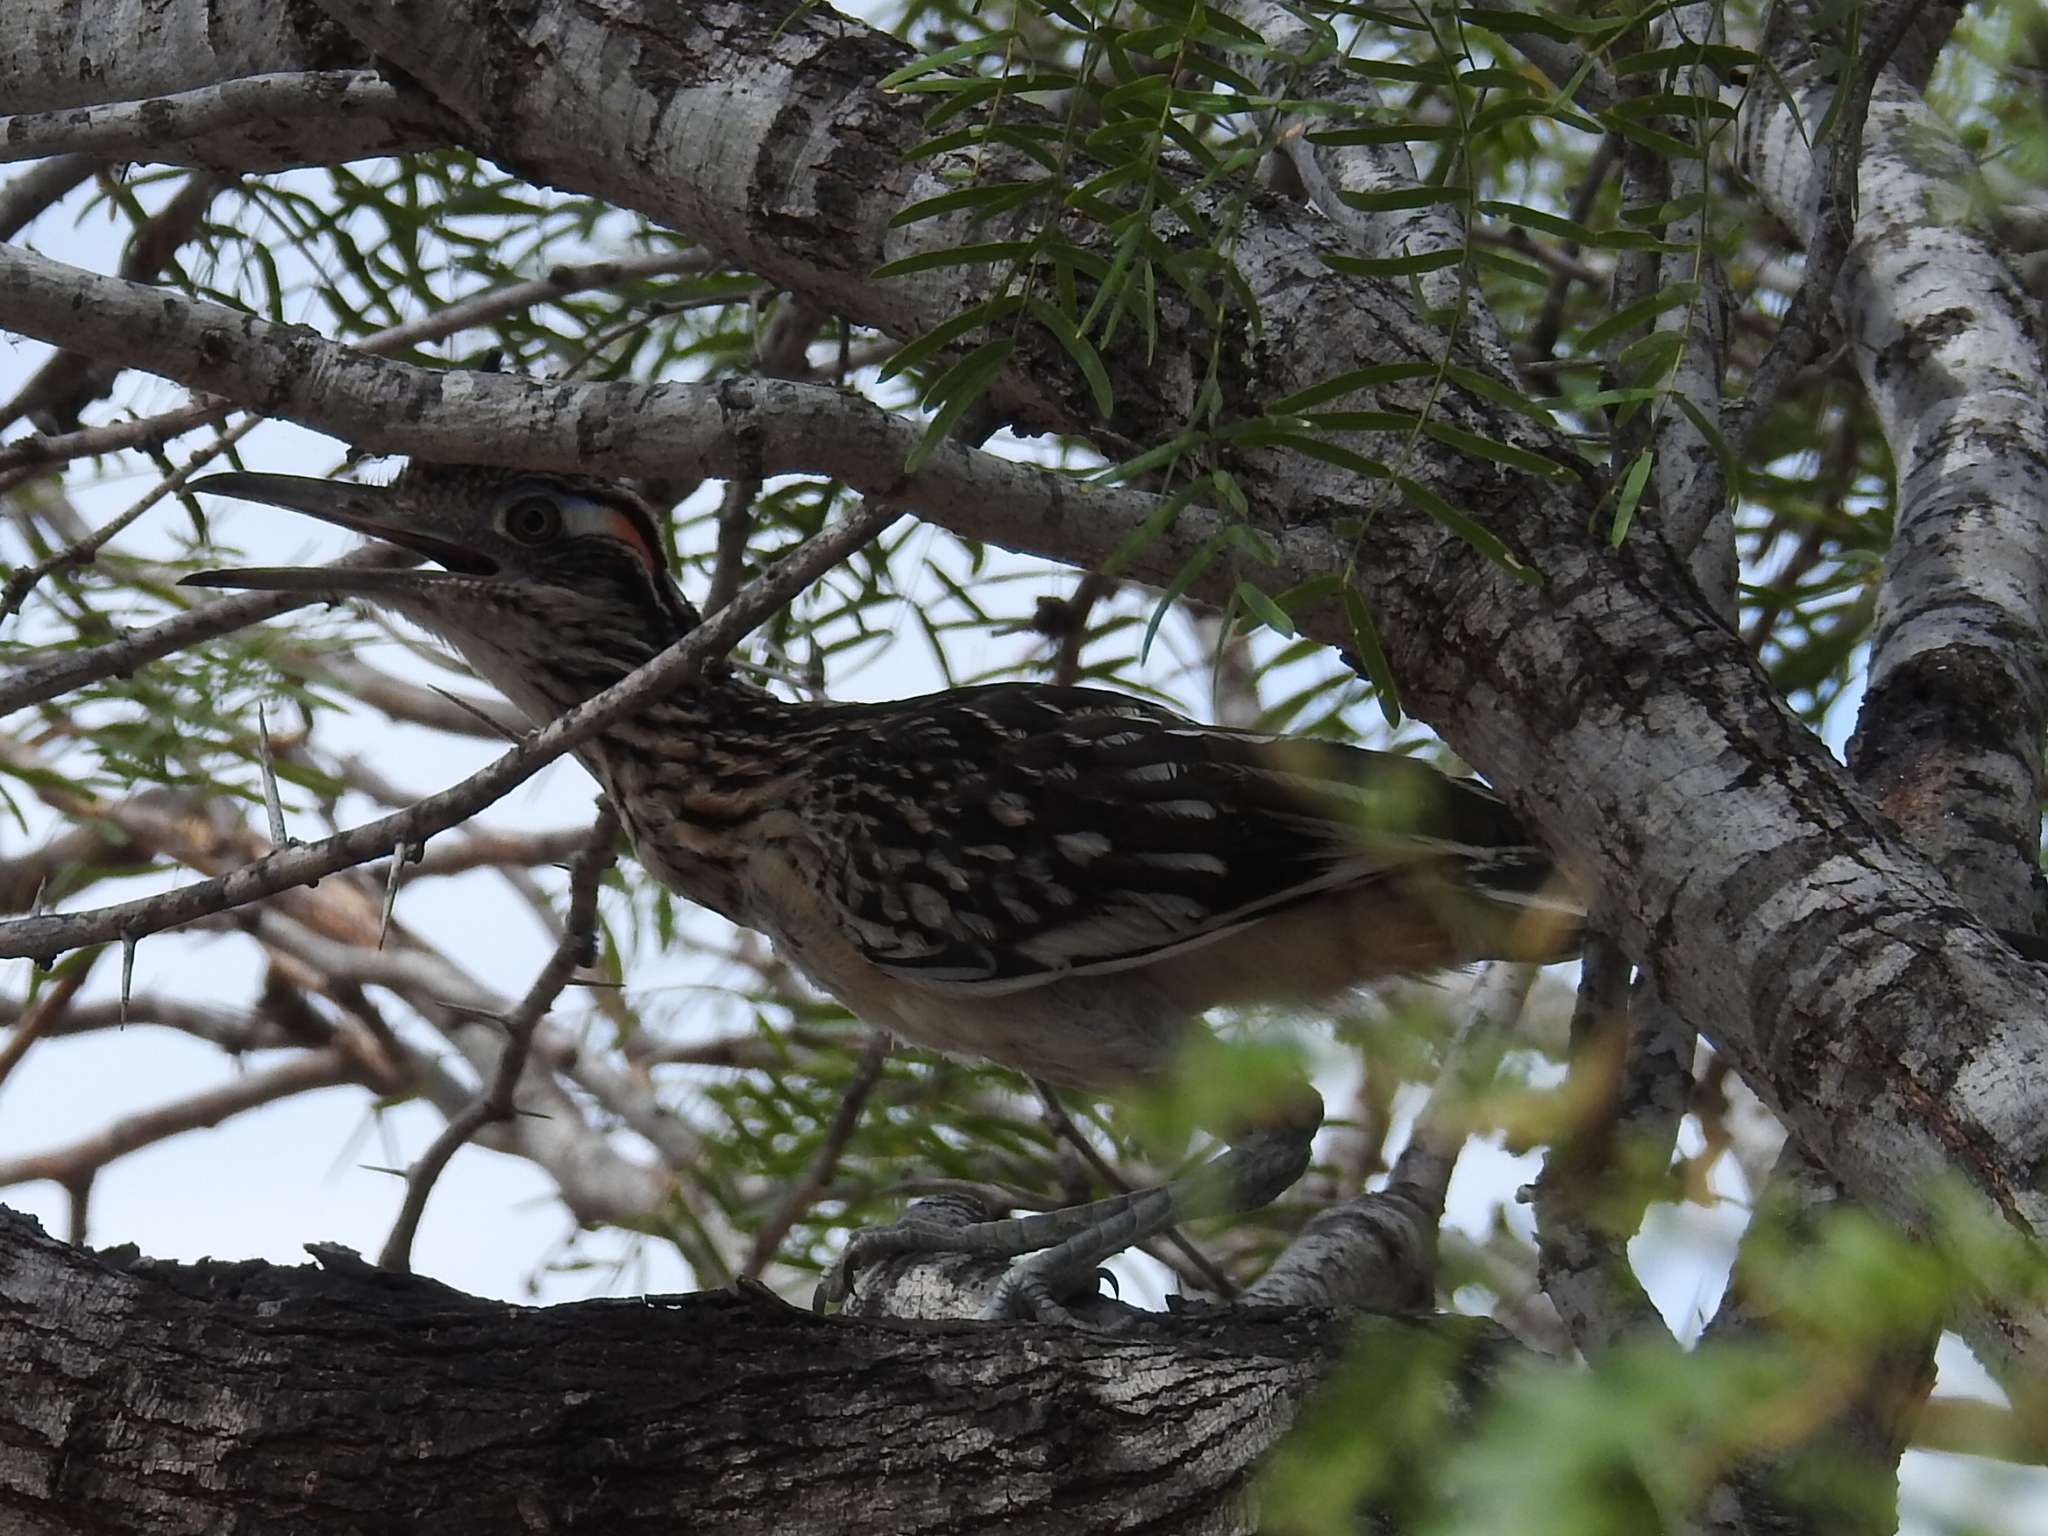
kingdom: Animalia
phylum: Chordata
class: Aves
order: Cuculiformes
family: Cuculidae
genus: Geococcyx
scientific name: Geococcyx californianus
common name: Greater roadrunner
